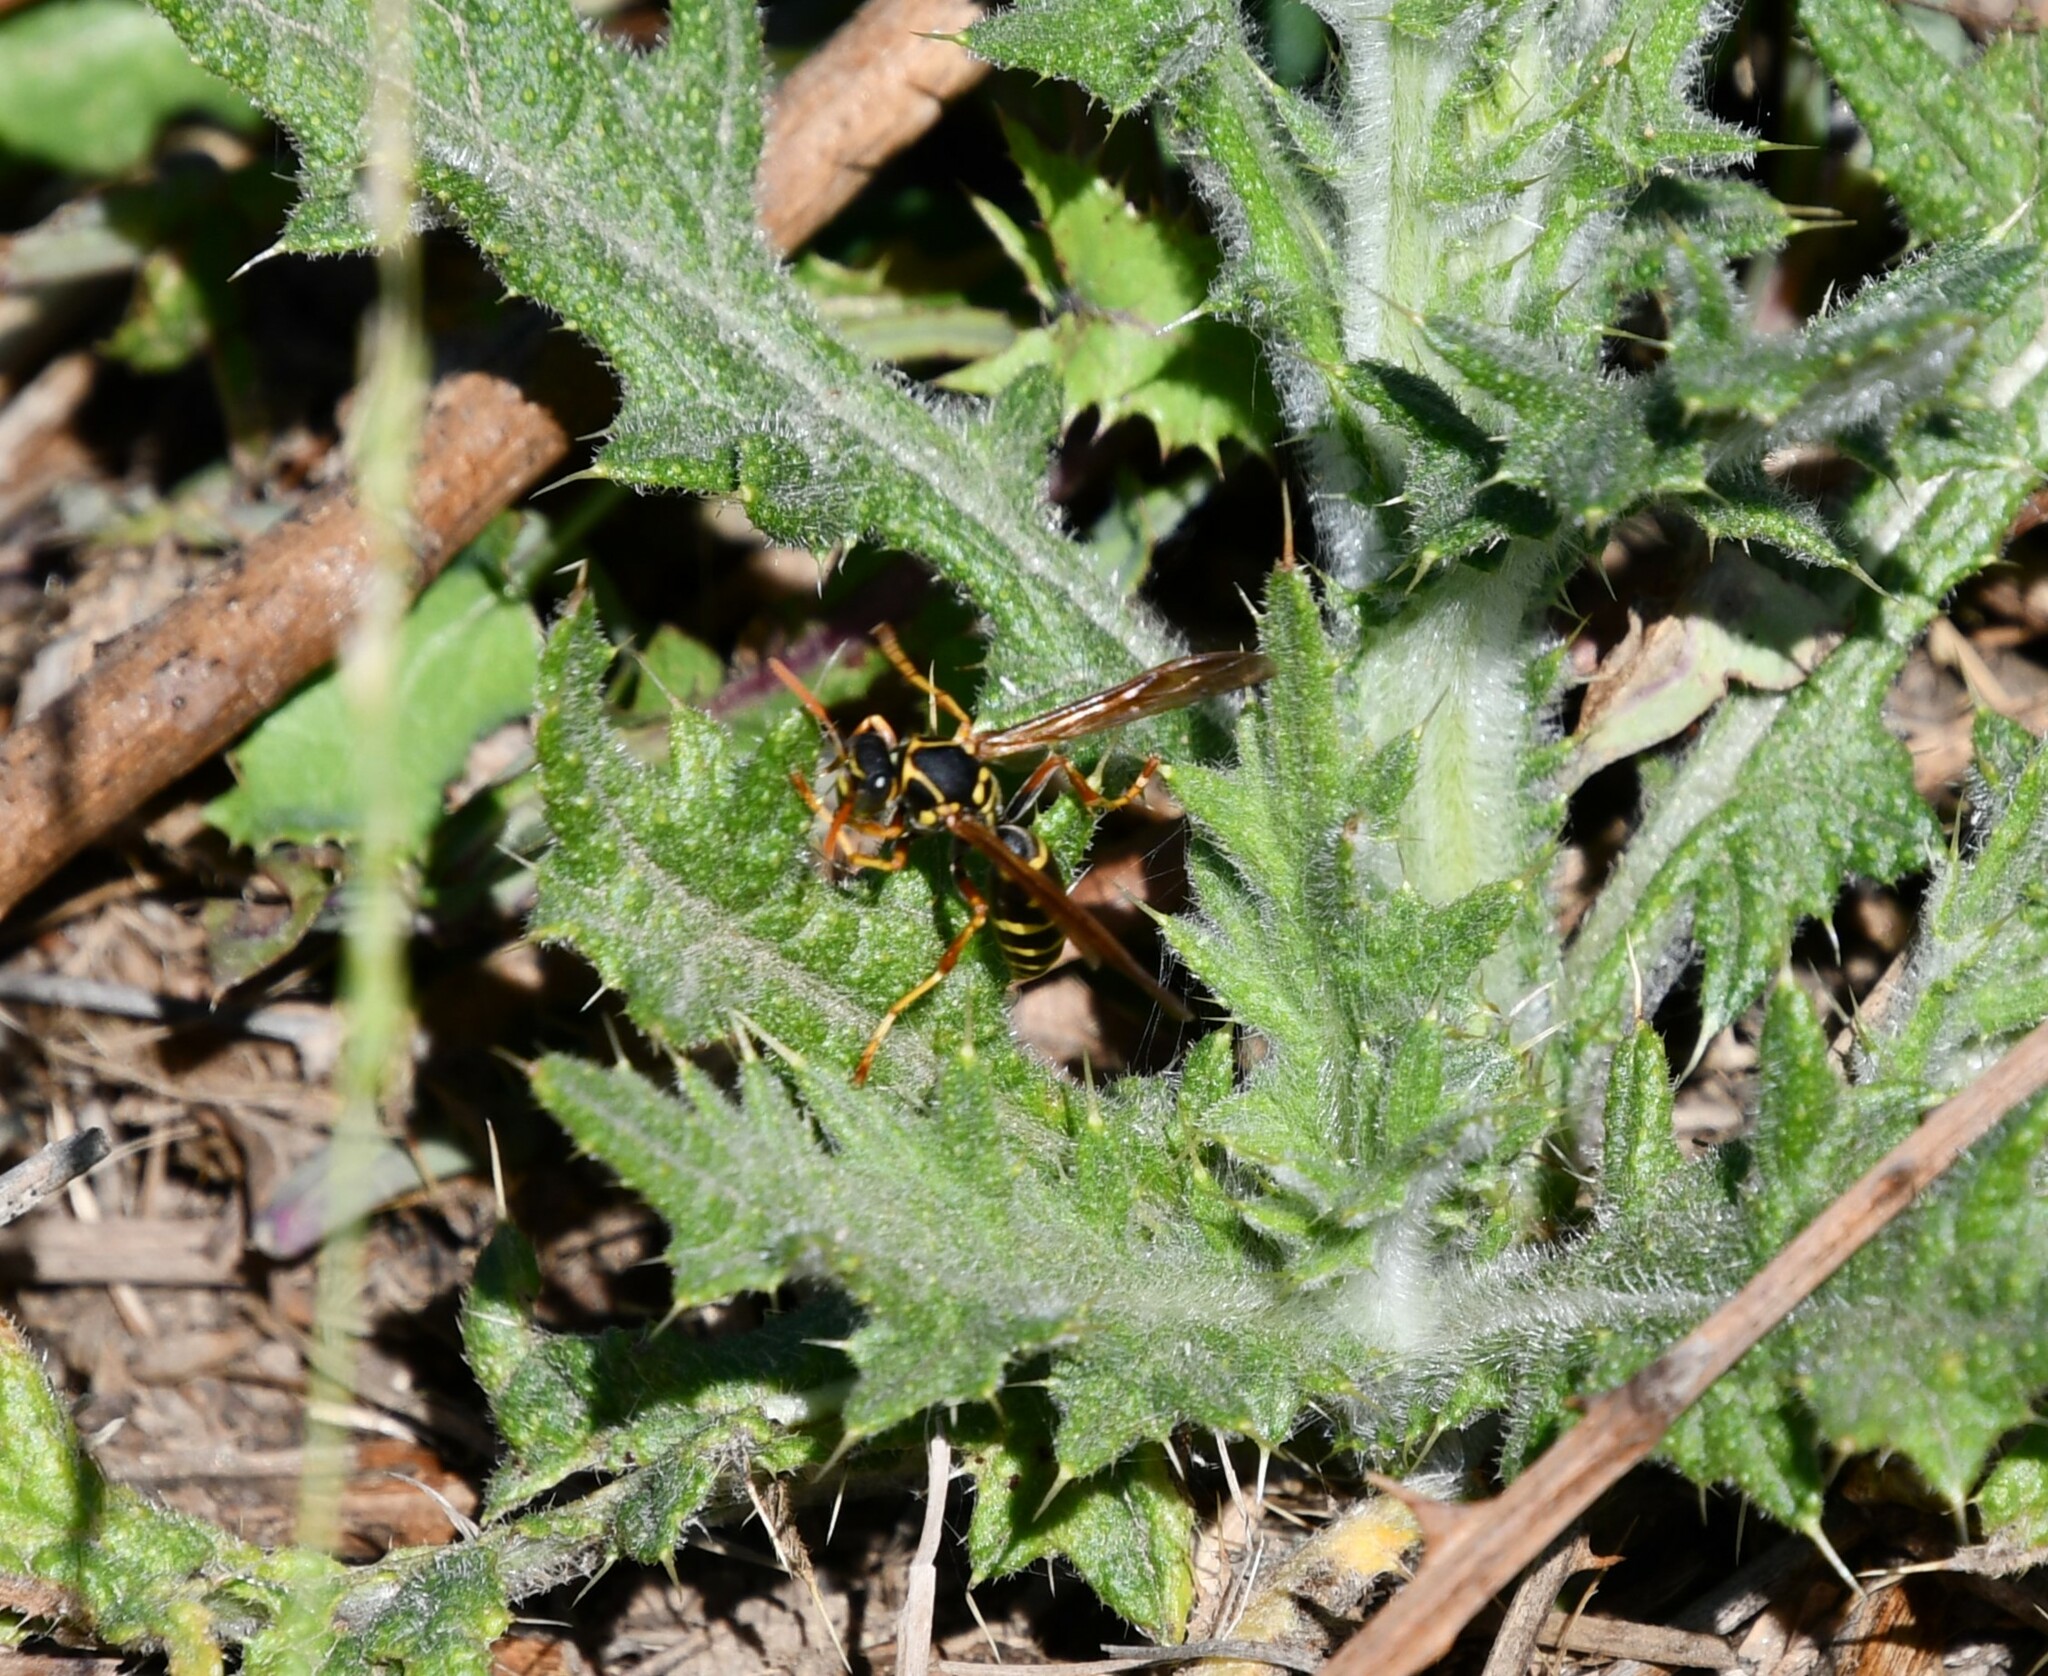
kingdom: Animalia
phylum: Arthropoda
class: Insecta
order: Hymenoptera
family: Eumenidae
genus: Polistes
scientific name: Polistes chinensis
